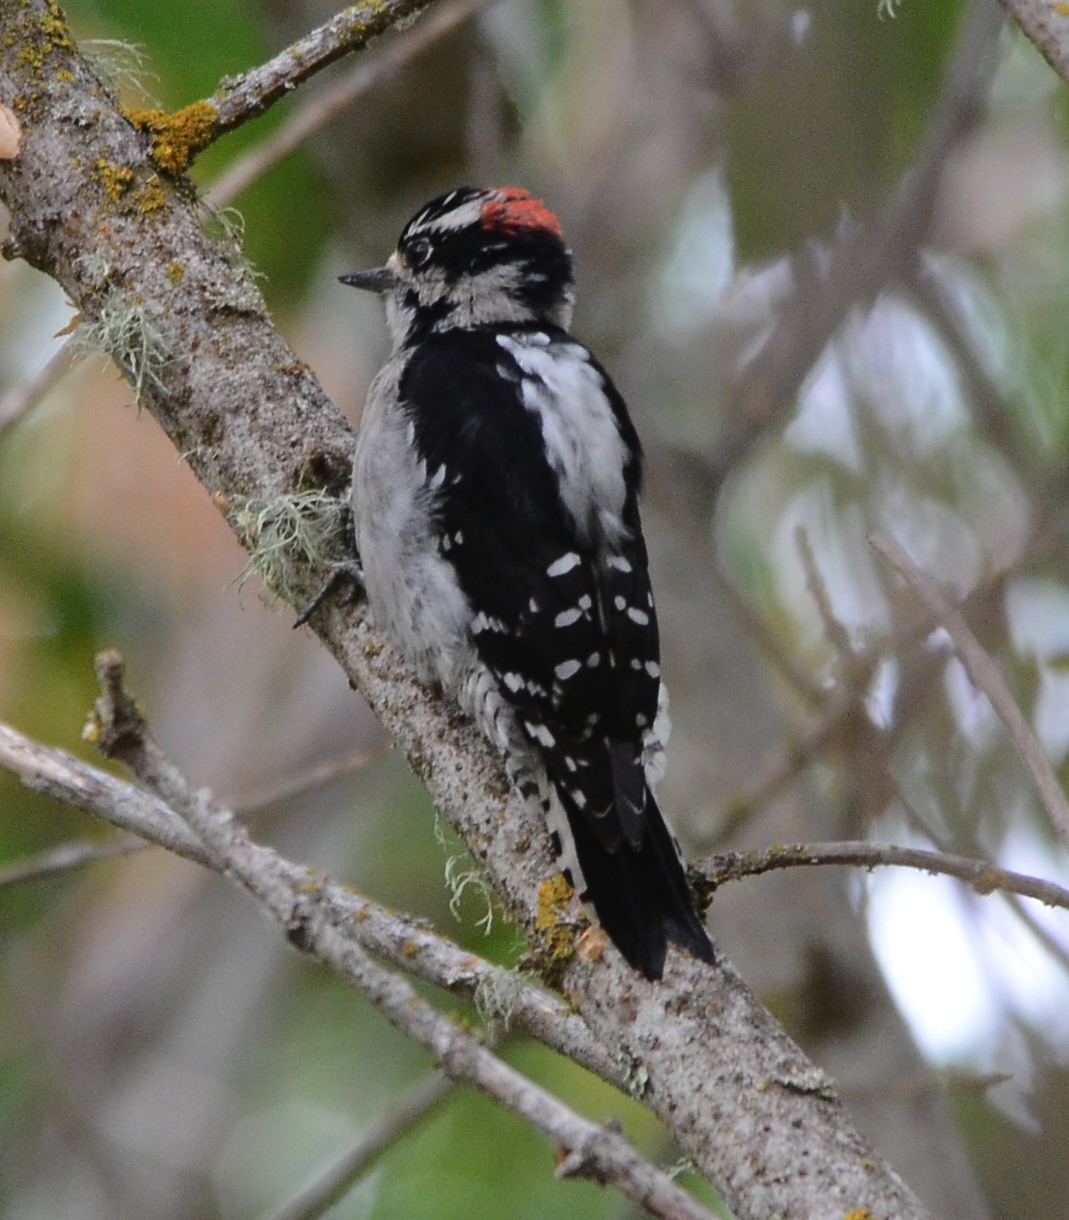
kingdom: Animalia
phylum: Chordata
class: Aves
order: Piciformes
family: Picidae
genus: Dryobates
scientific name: Dryobates pubescens
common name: Downy woodpecker
